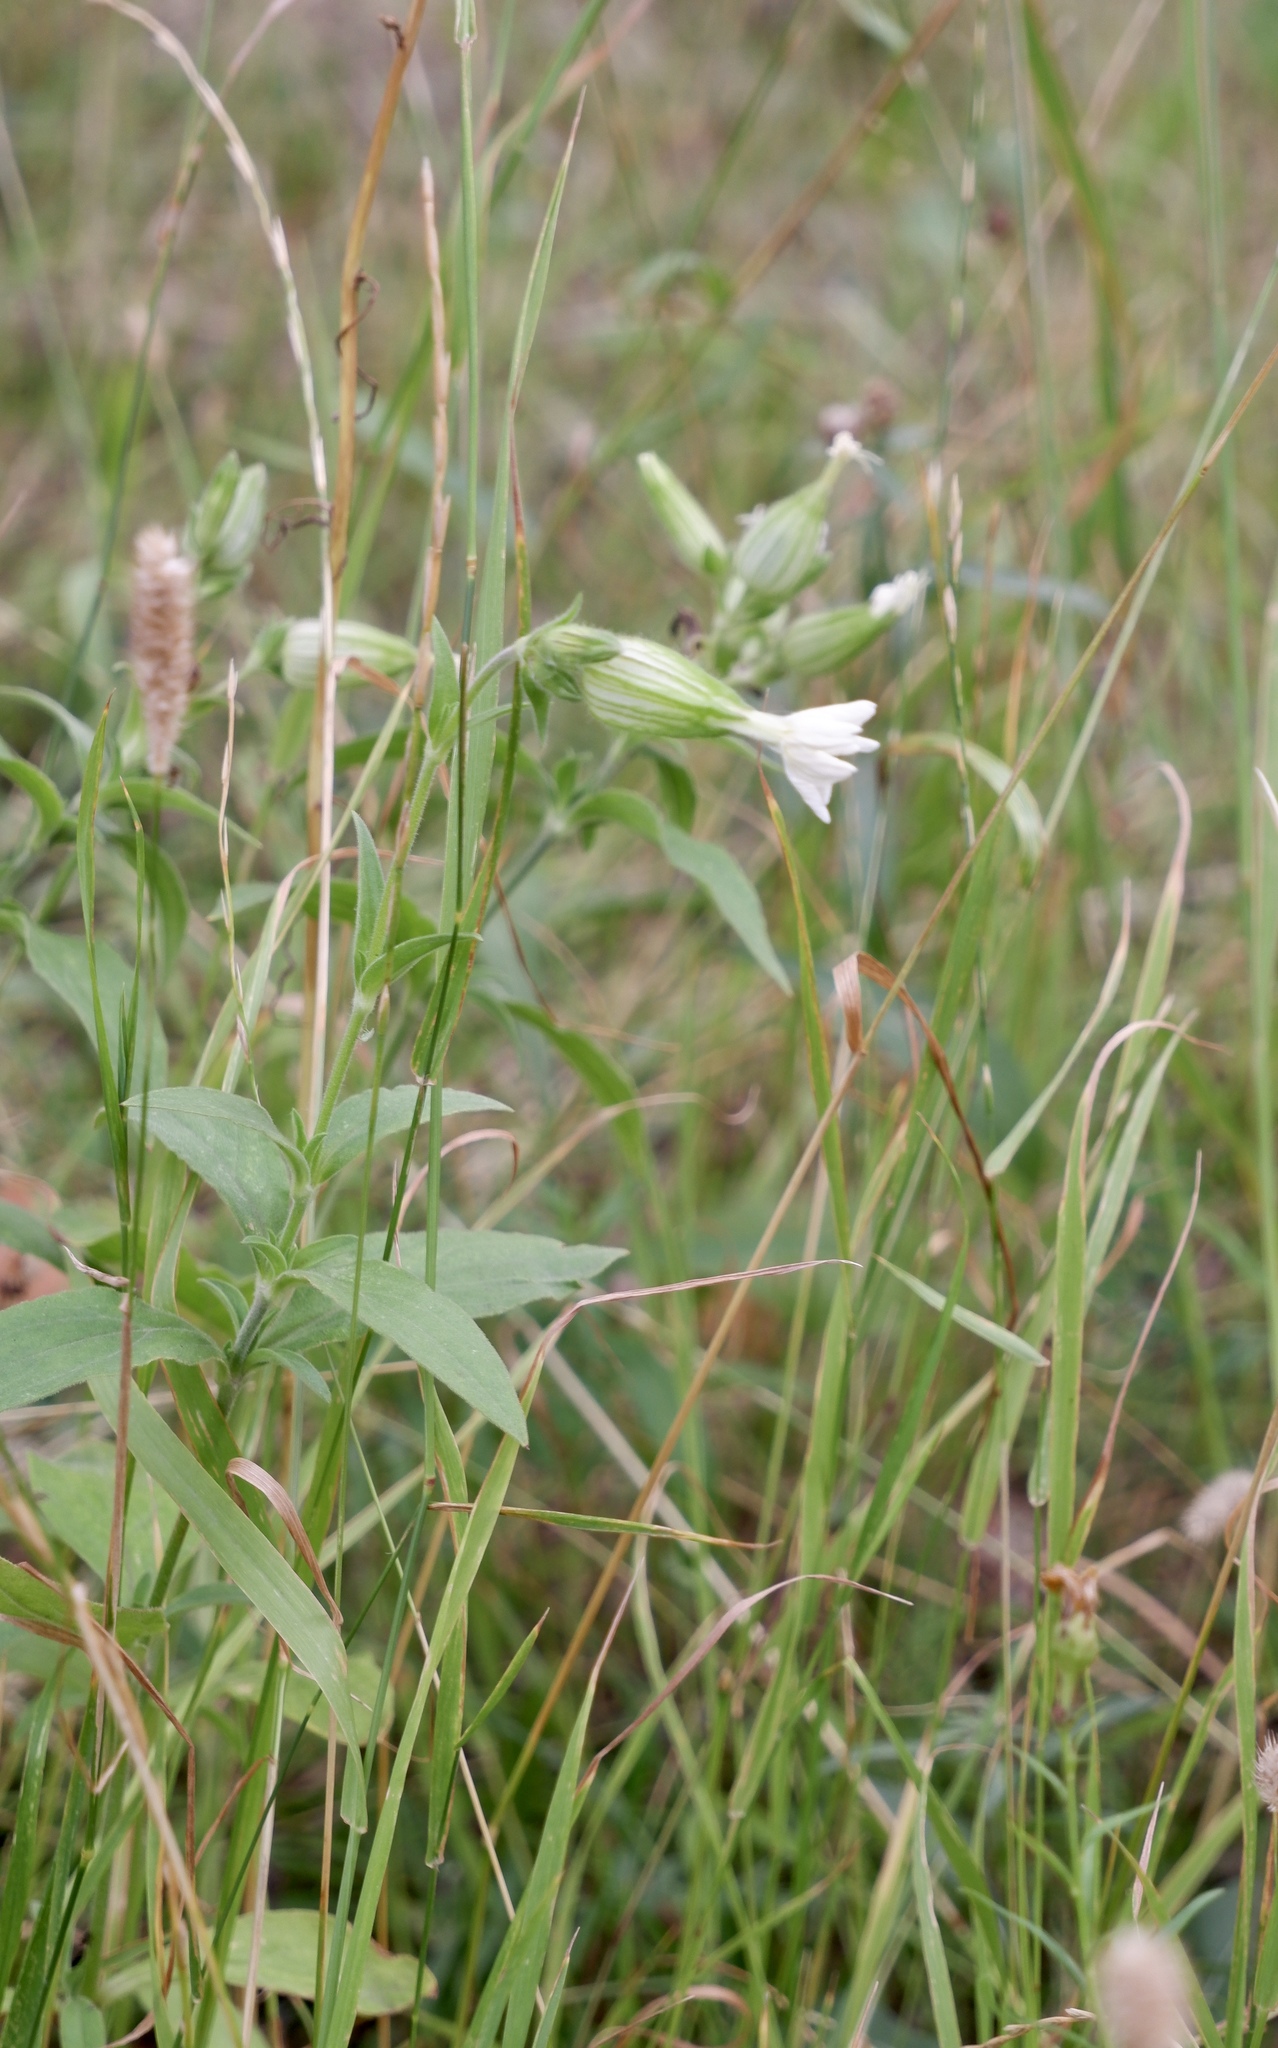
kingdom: Plantae
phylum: Tracheophyta
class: Magnoliopsida
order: Caryophyllales
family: Caryophyllaceae
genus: Silene
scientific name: Silene latifolia
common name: White campion
